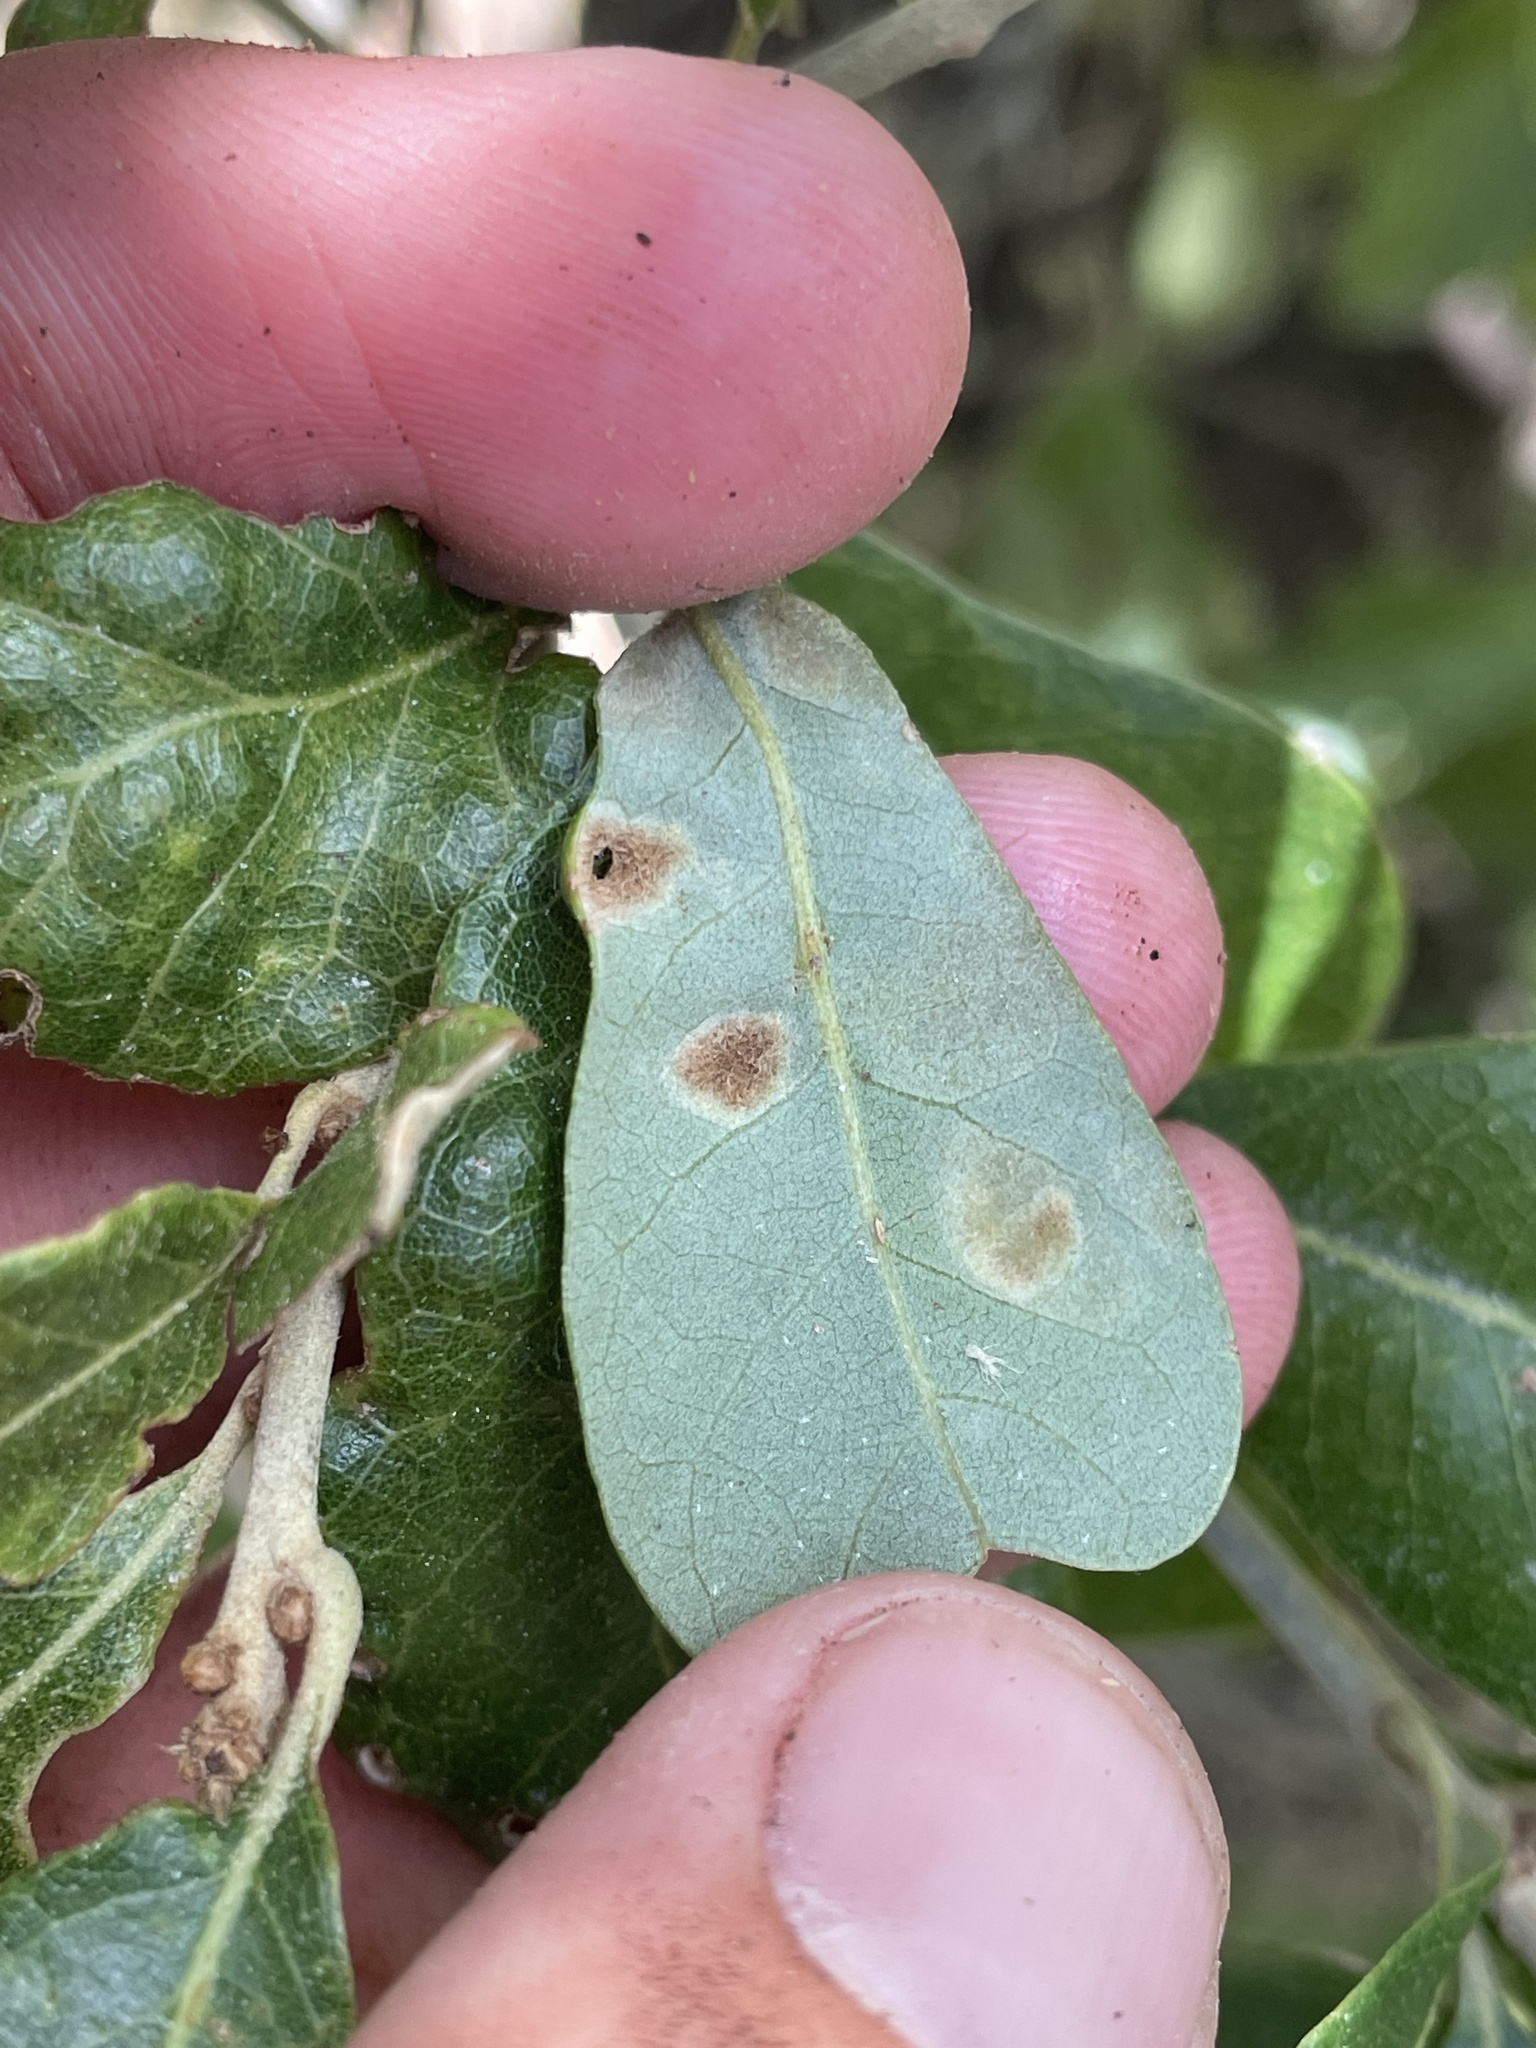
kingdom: Animalia
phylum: Arthropoda
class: Arachnida
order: Trombidiformes
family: Eriophyidae
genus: Aceria
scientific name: Aceria quercina
